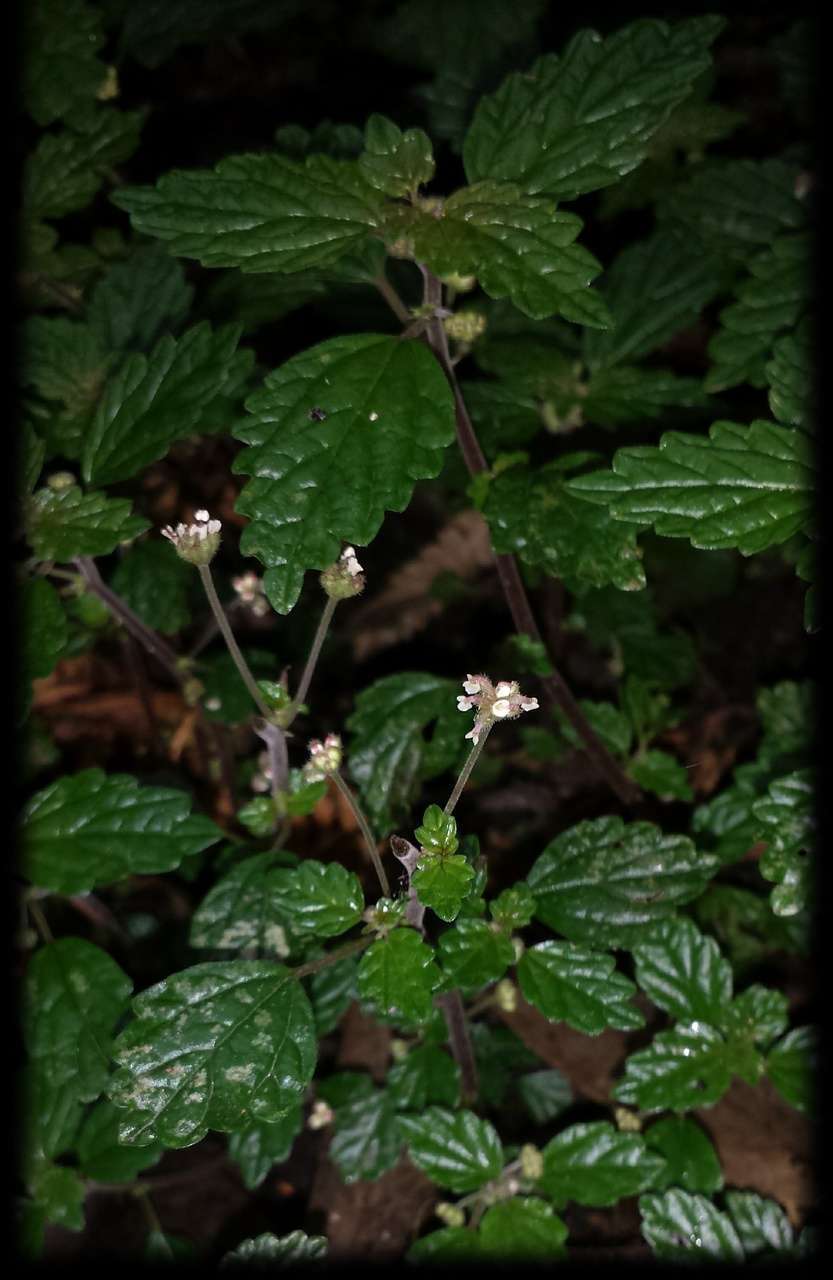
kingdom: Plantae
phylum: Tracheophyta
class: Magnoliopsida
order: Rosales
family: Urticaceae
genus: Australina
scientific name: Australina pusilla
